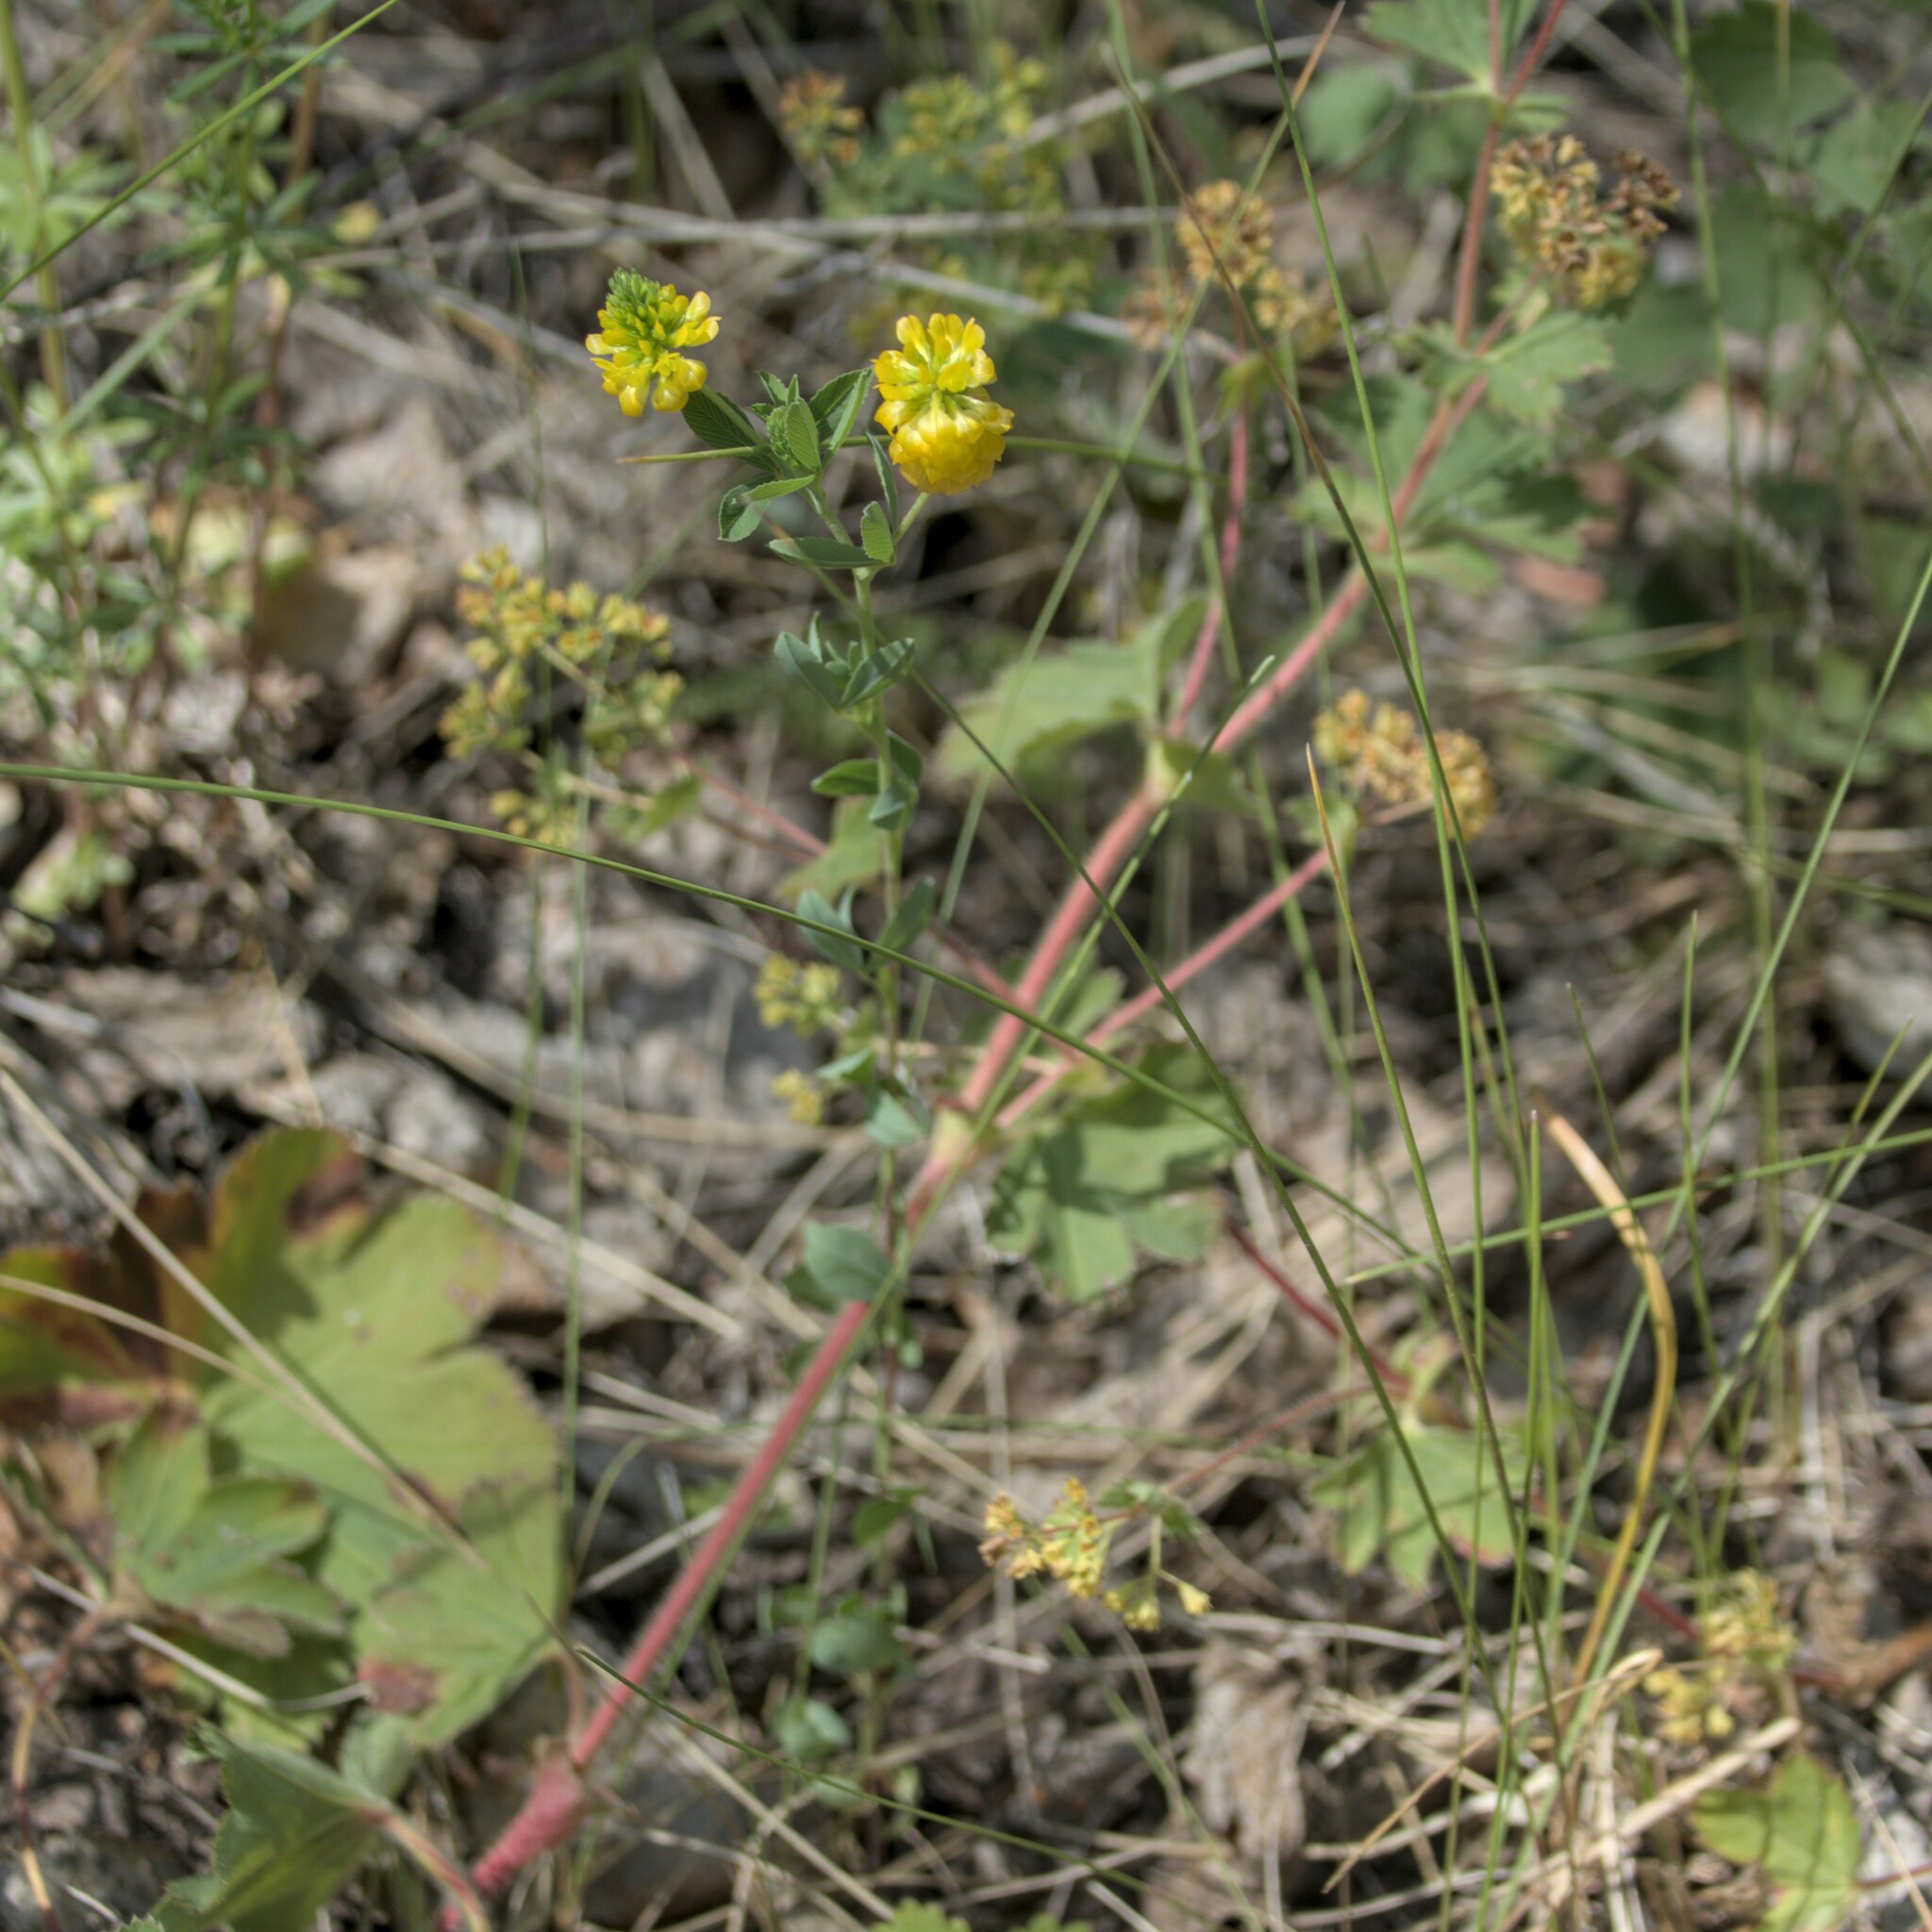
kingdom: Plantae
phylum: Tracheophyta
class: Magnoliopsida
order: Fabales
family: Fabaceae
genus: Trifolium
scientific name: Trifolium aureum
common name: Golden clover
